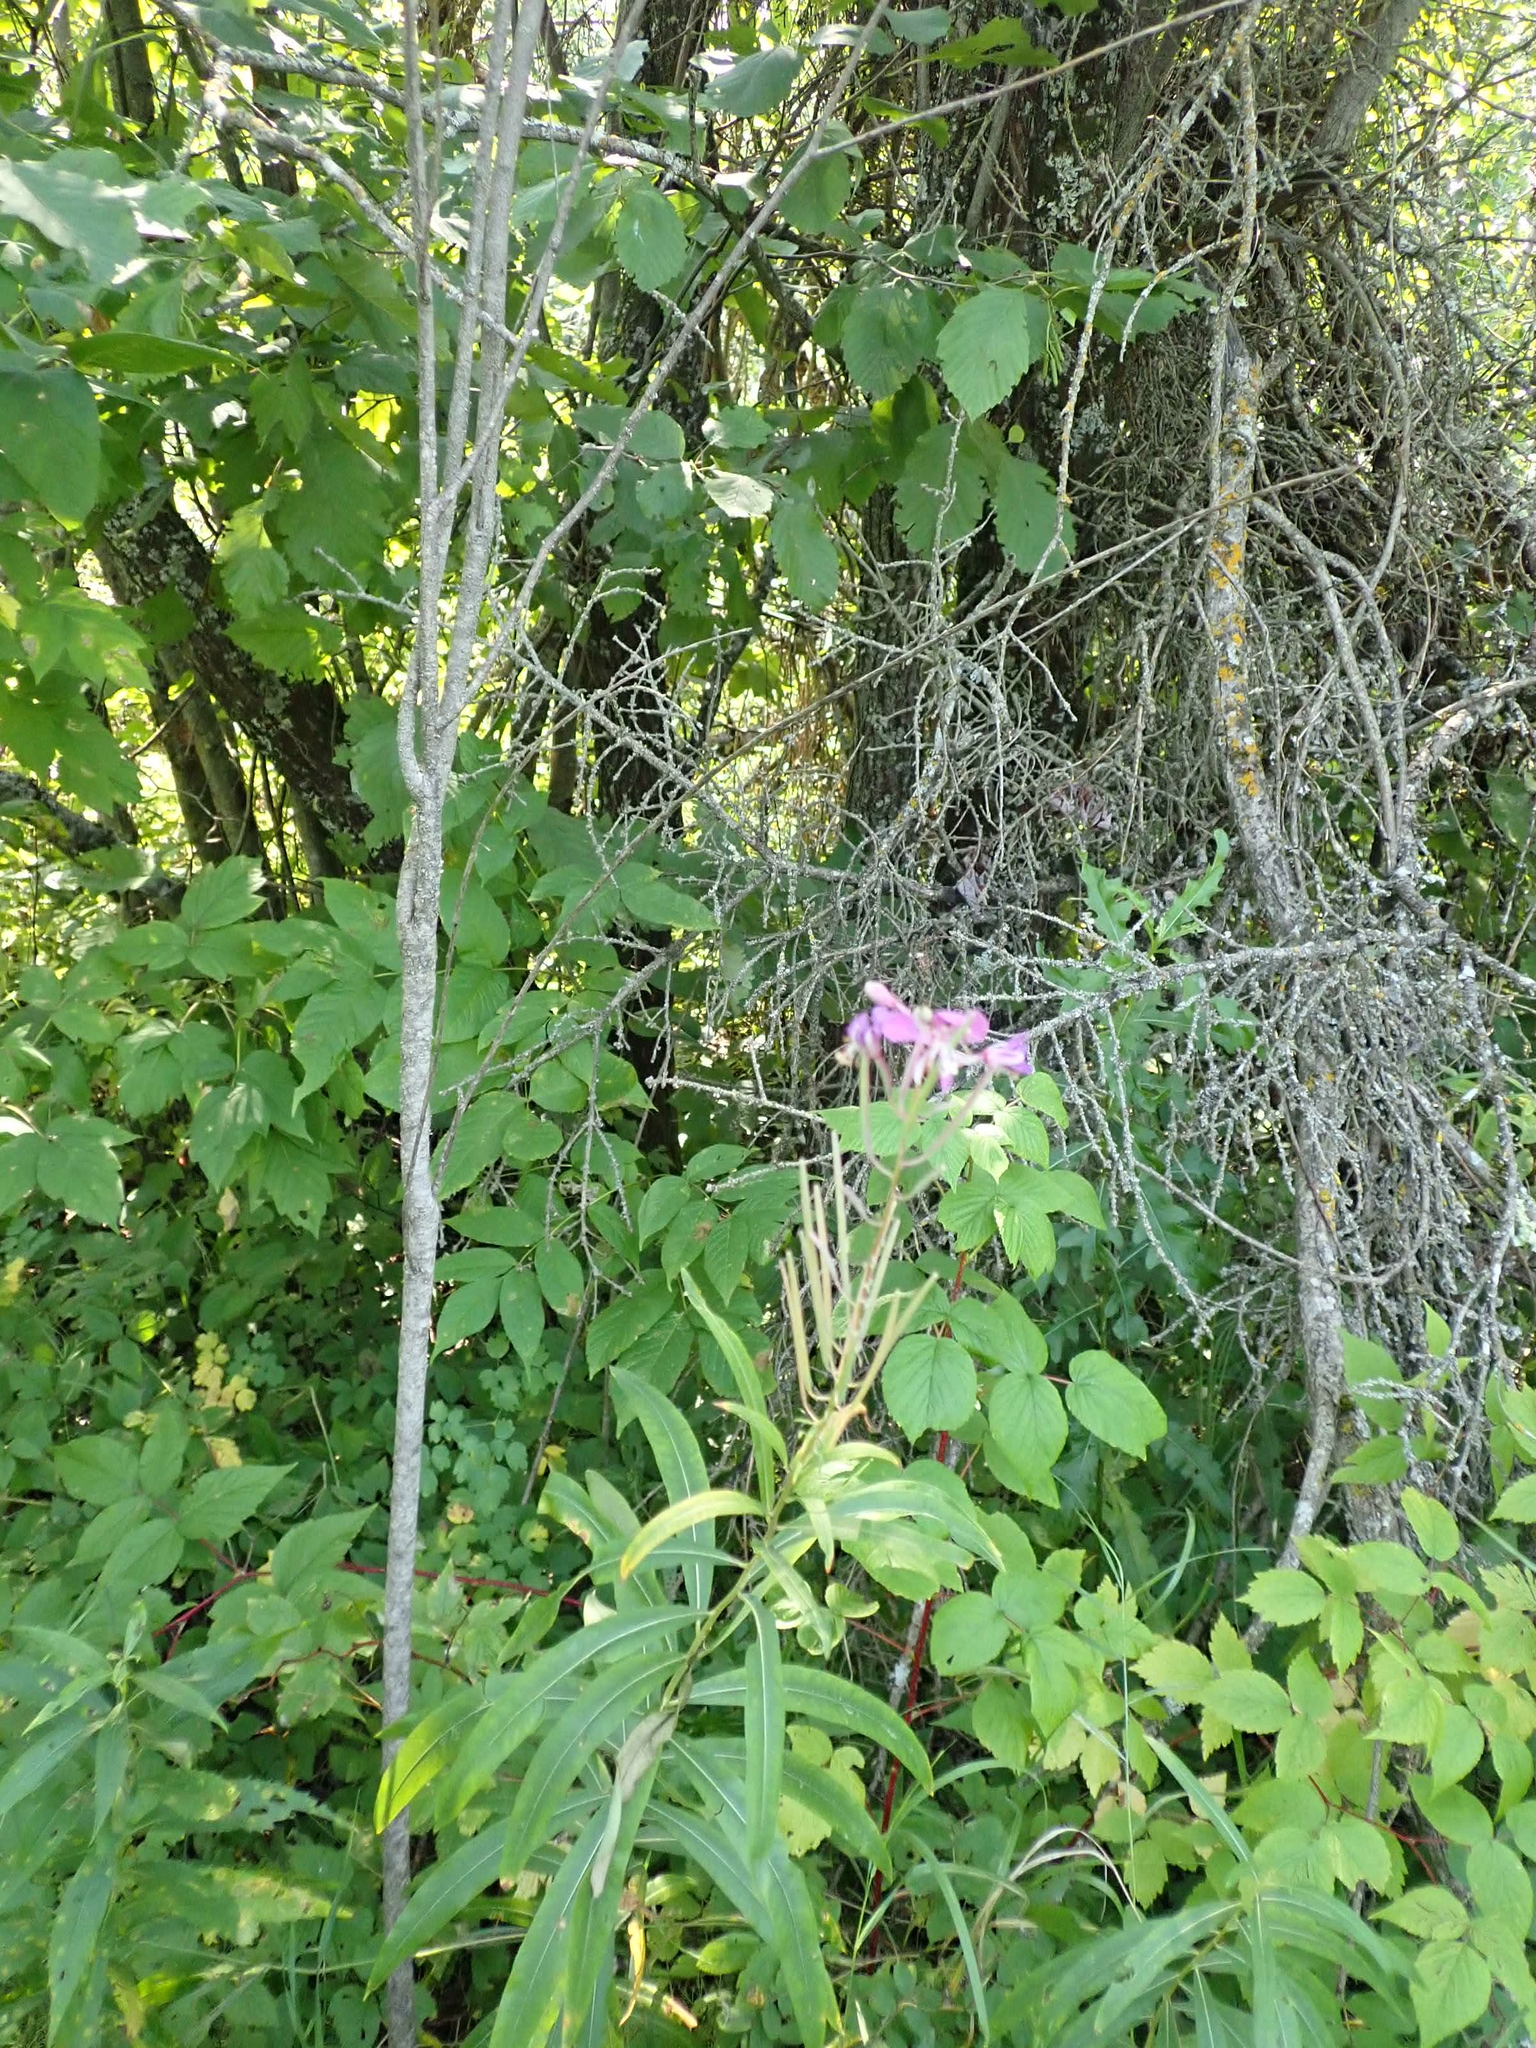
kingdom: Plantae
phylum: Tracheophyta
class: Magnoliopsida
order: Myrtales
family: Onagraceae
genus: Chamaenerion
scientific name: Chamaenerion angustifolium
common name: Fireweed
